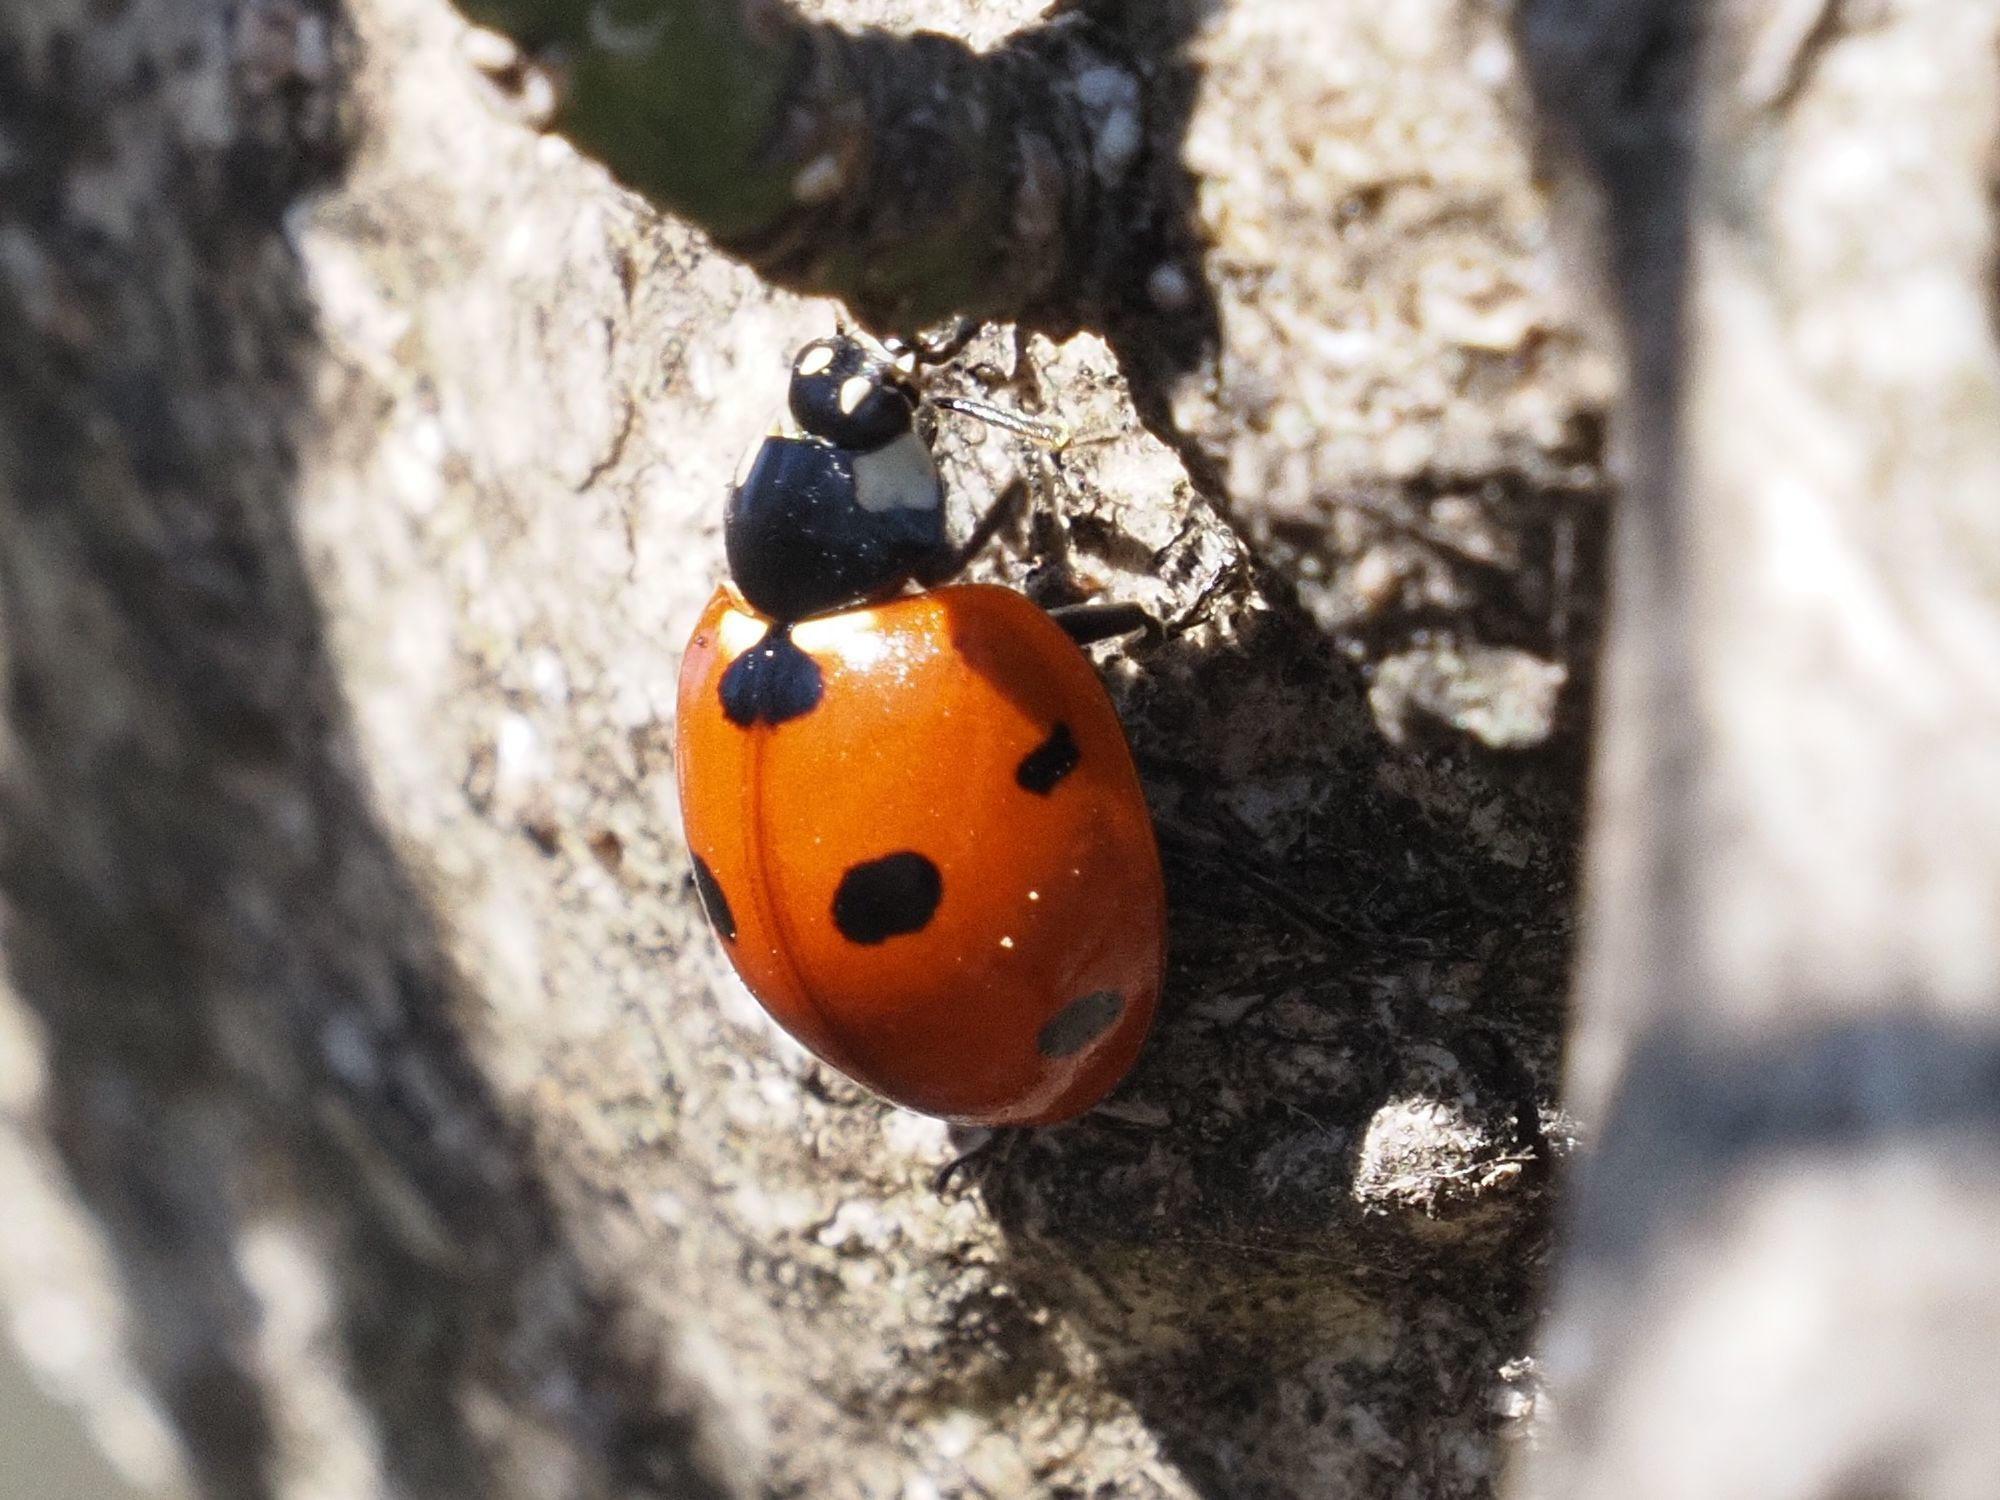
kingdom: Animalia
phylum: Arthropoda
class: Insecta
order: Coleoptera
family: Coccinellidae
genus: Coccinella
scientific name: Coccinella septempunctata
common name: Sevenspotted lady beetle
